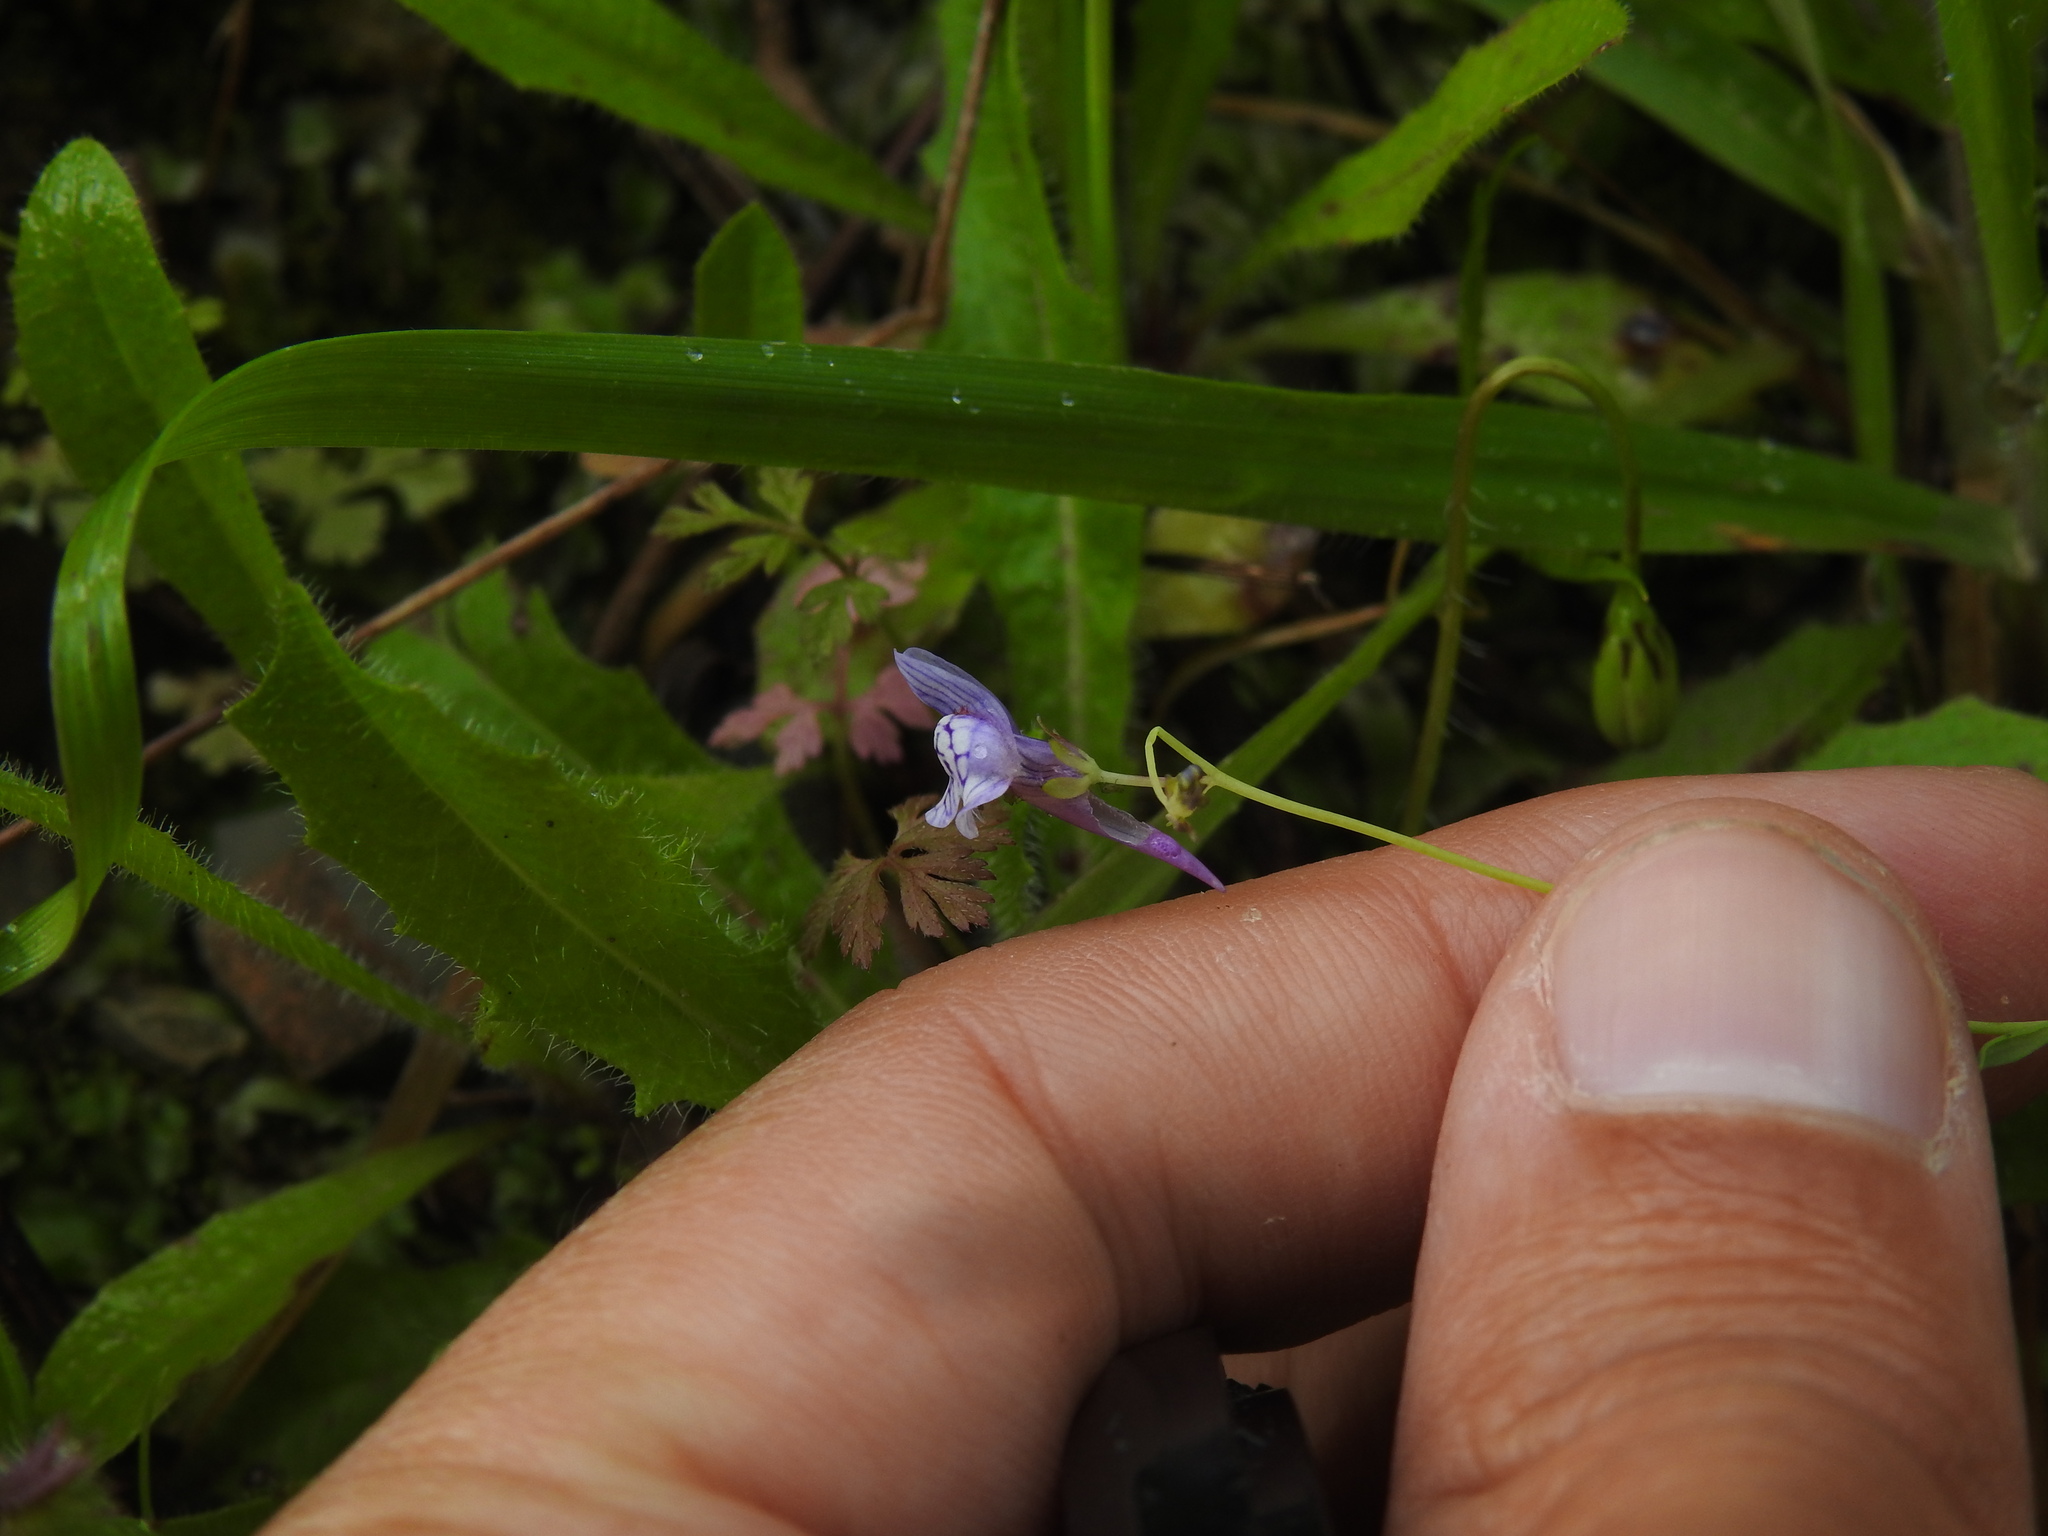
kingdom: Plantae
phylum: Tracheophyta
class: Magnoliopsida
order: Lamiales
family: Plantaginaceae
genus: Linaria
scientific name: Linaria diffusa
